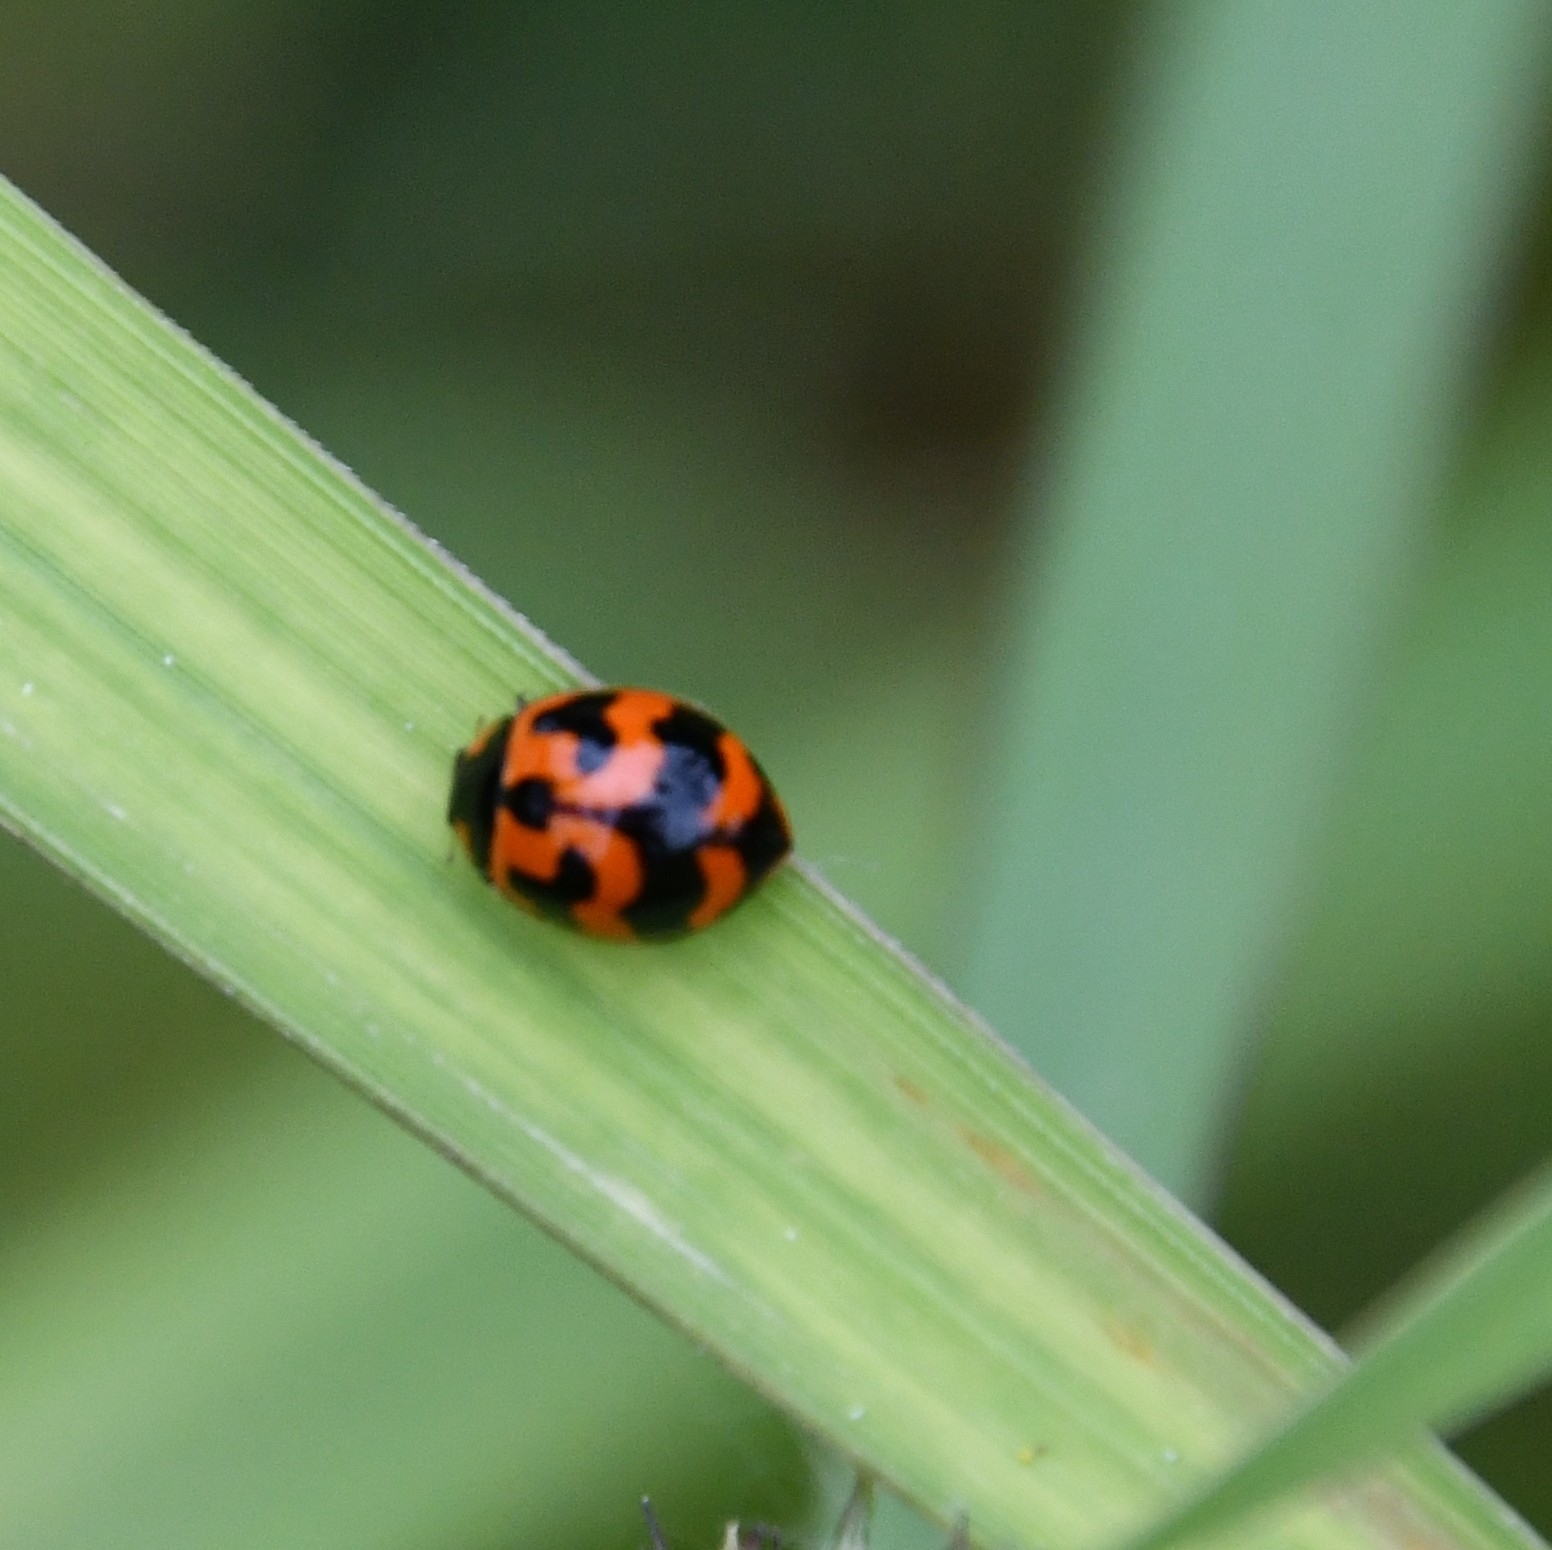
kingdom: Animalia
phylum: Arthropoda
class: Insecta
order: Coleoptera
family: Coccinellidae
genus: Coccinella
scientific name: Coccinella transversalis
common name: Transverse lady beetle
